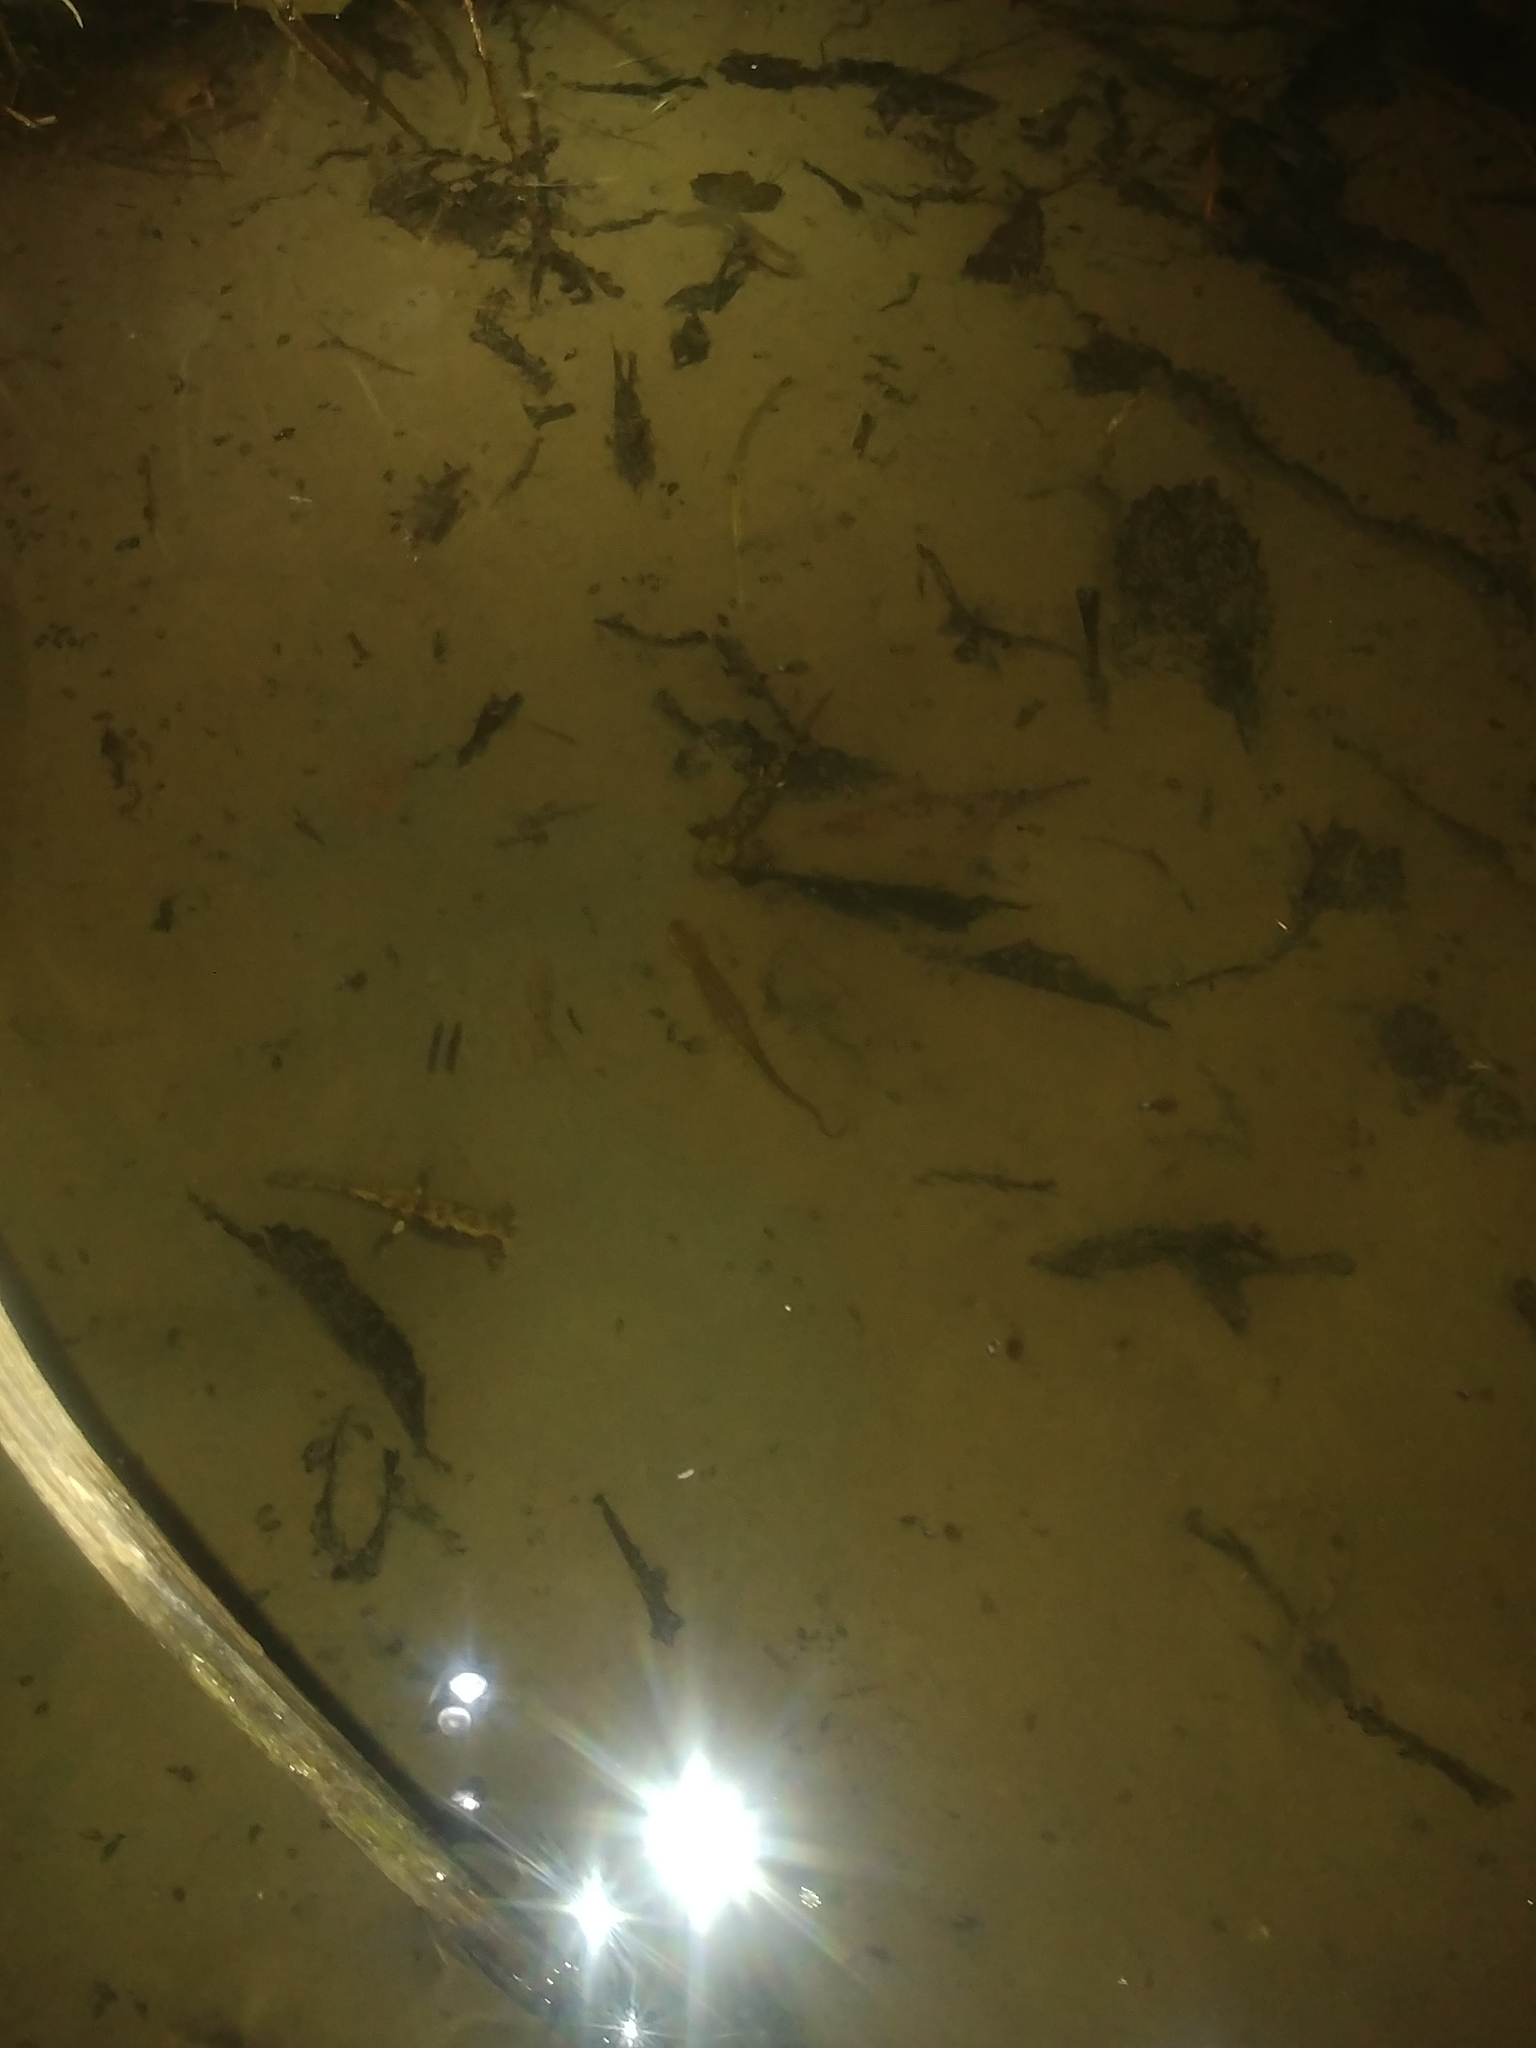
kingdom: Animalia
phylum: Chordata
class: Amphibia
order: Caudata
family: Salamandridae
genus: Salamandra
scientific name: Salamandra salamandra
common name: Fire salamander
